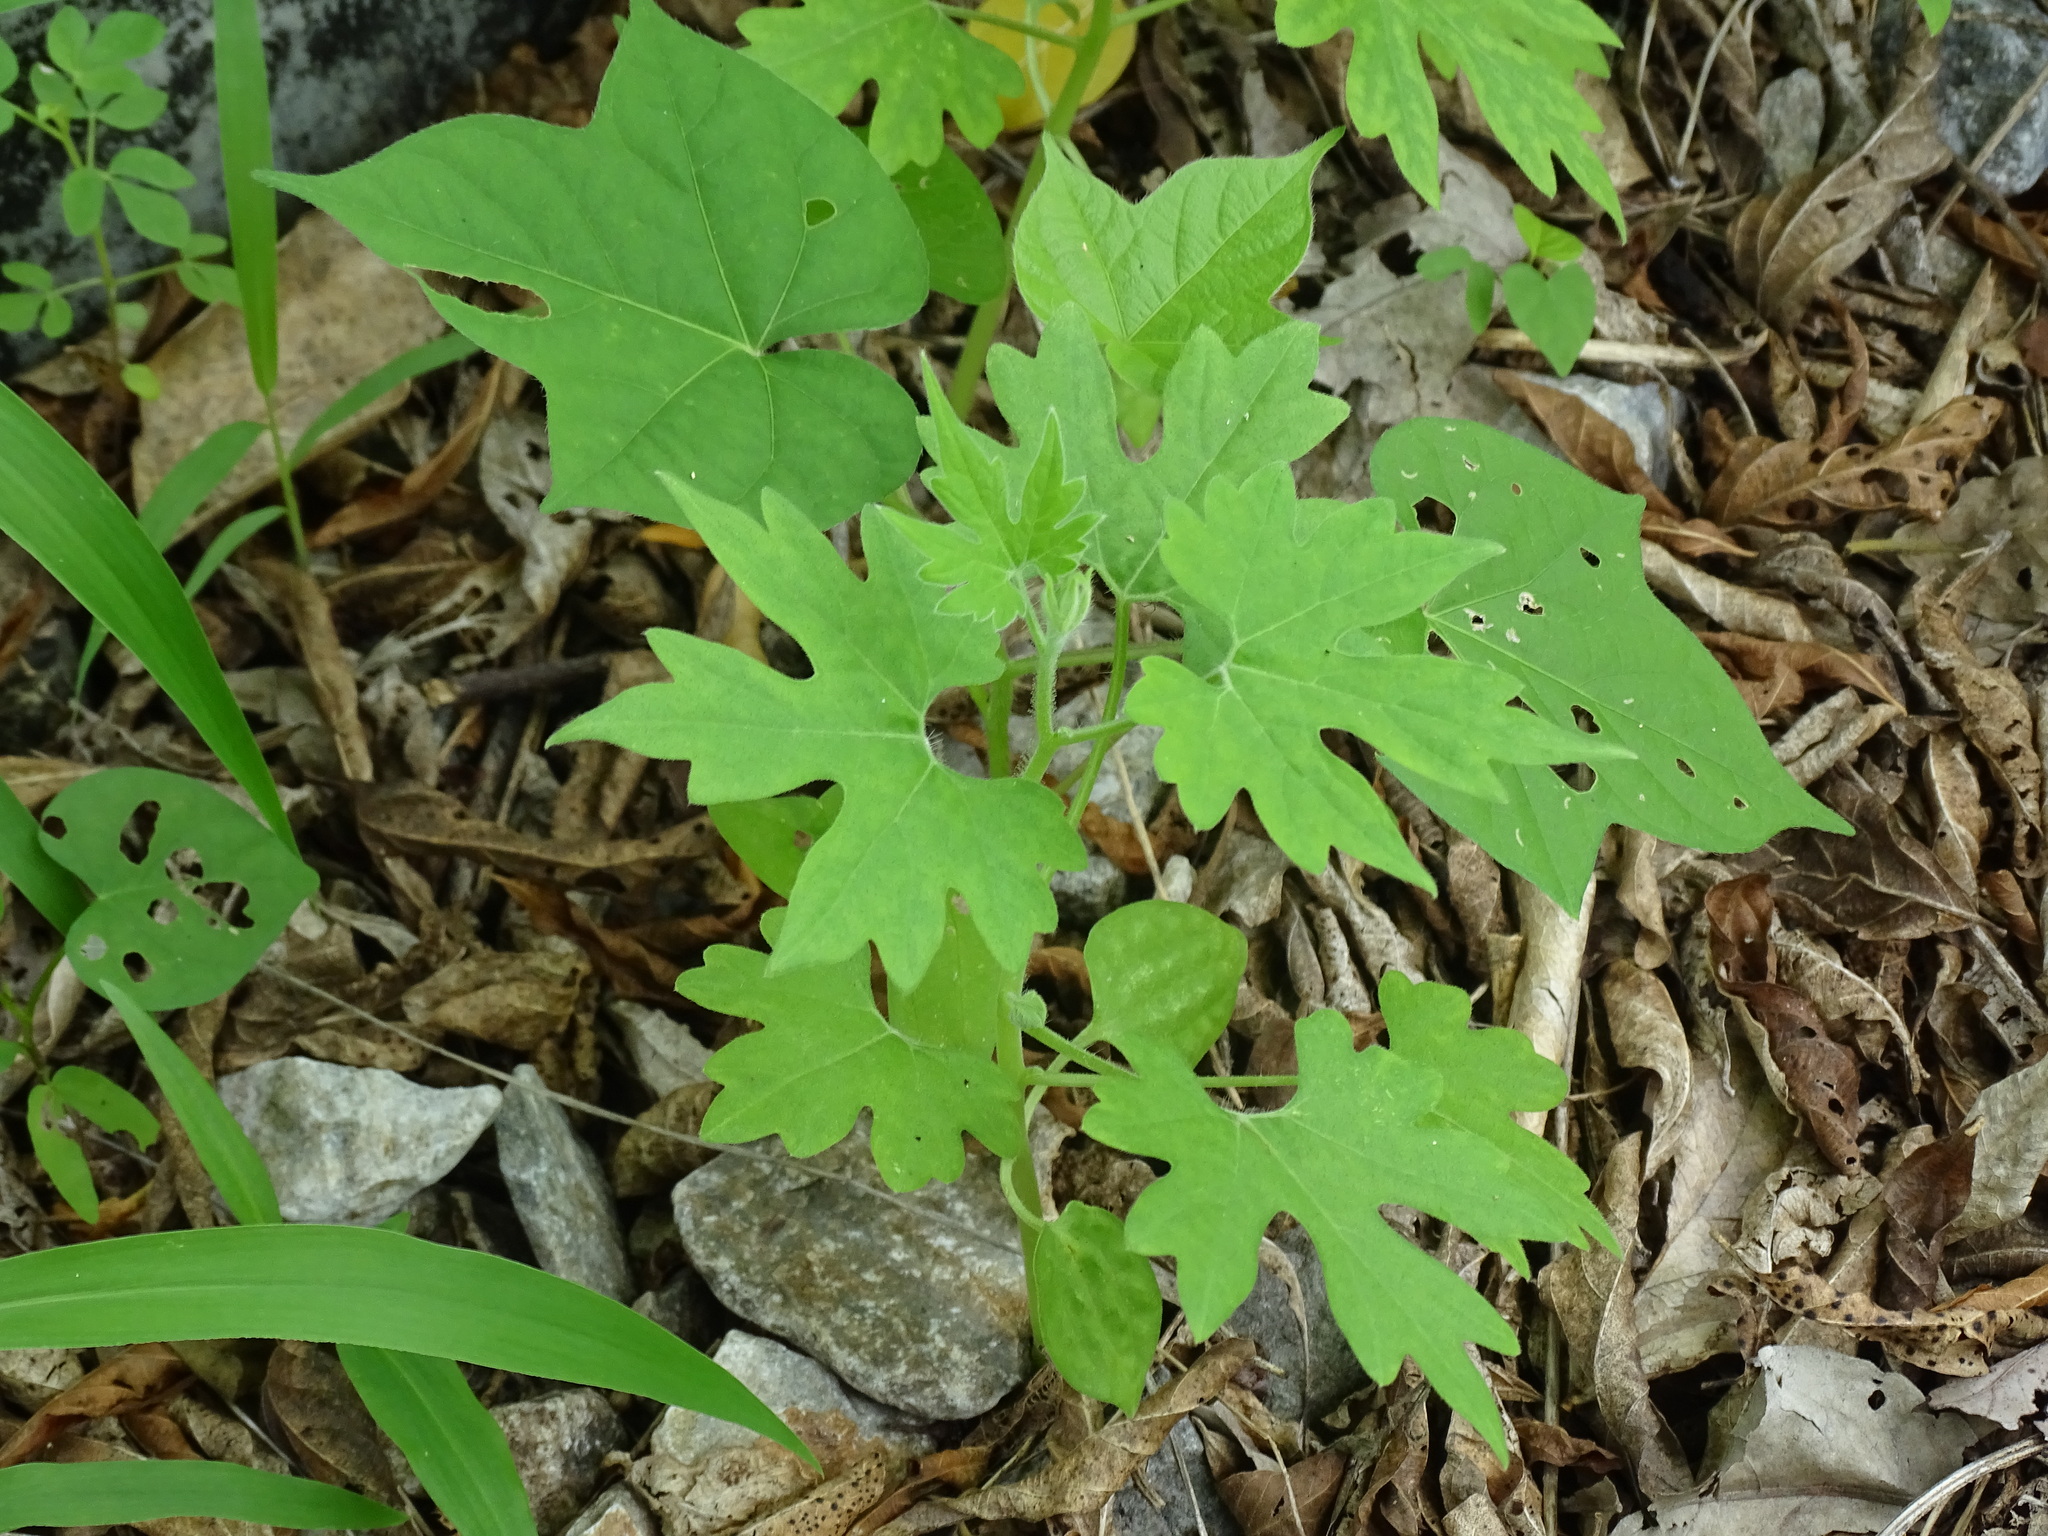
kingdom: Plantae
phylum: Tracheophyta
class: Magnoliopsida
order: Cornales
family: Loasaceae
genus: Gronovia
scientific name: Gronovia scandens
